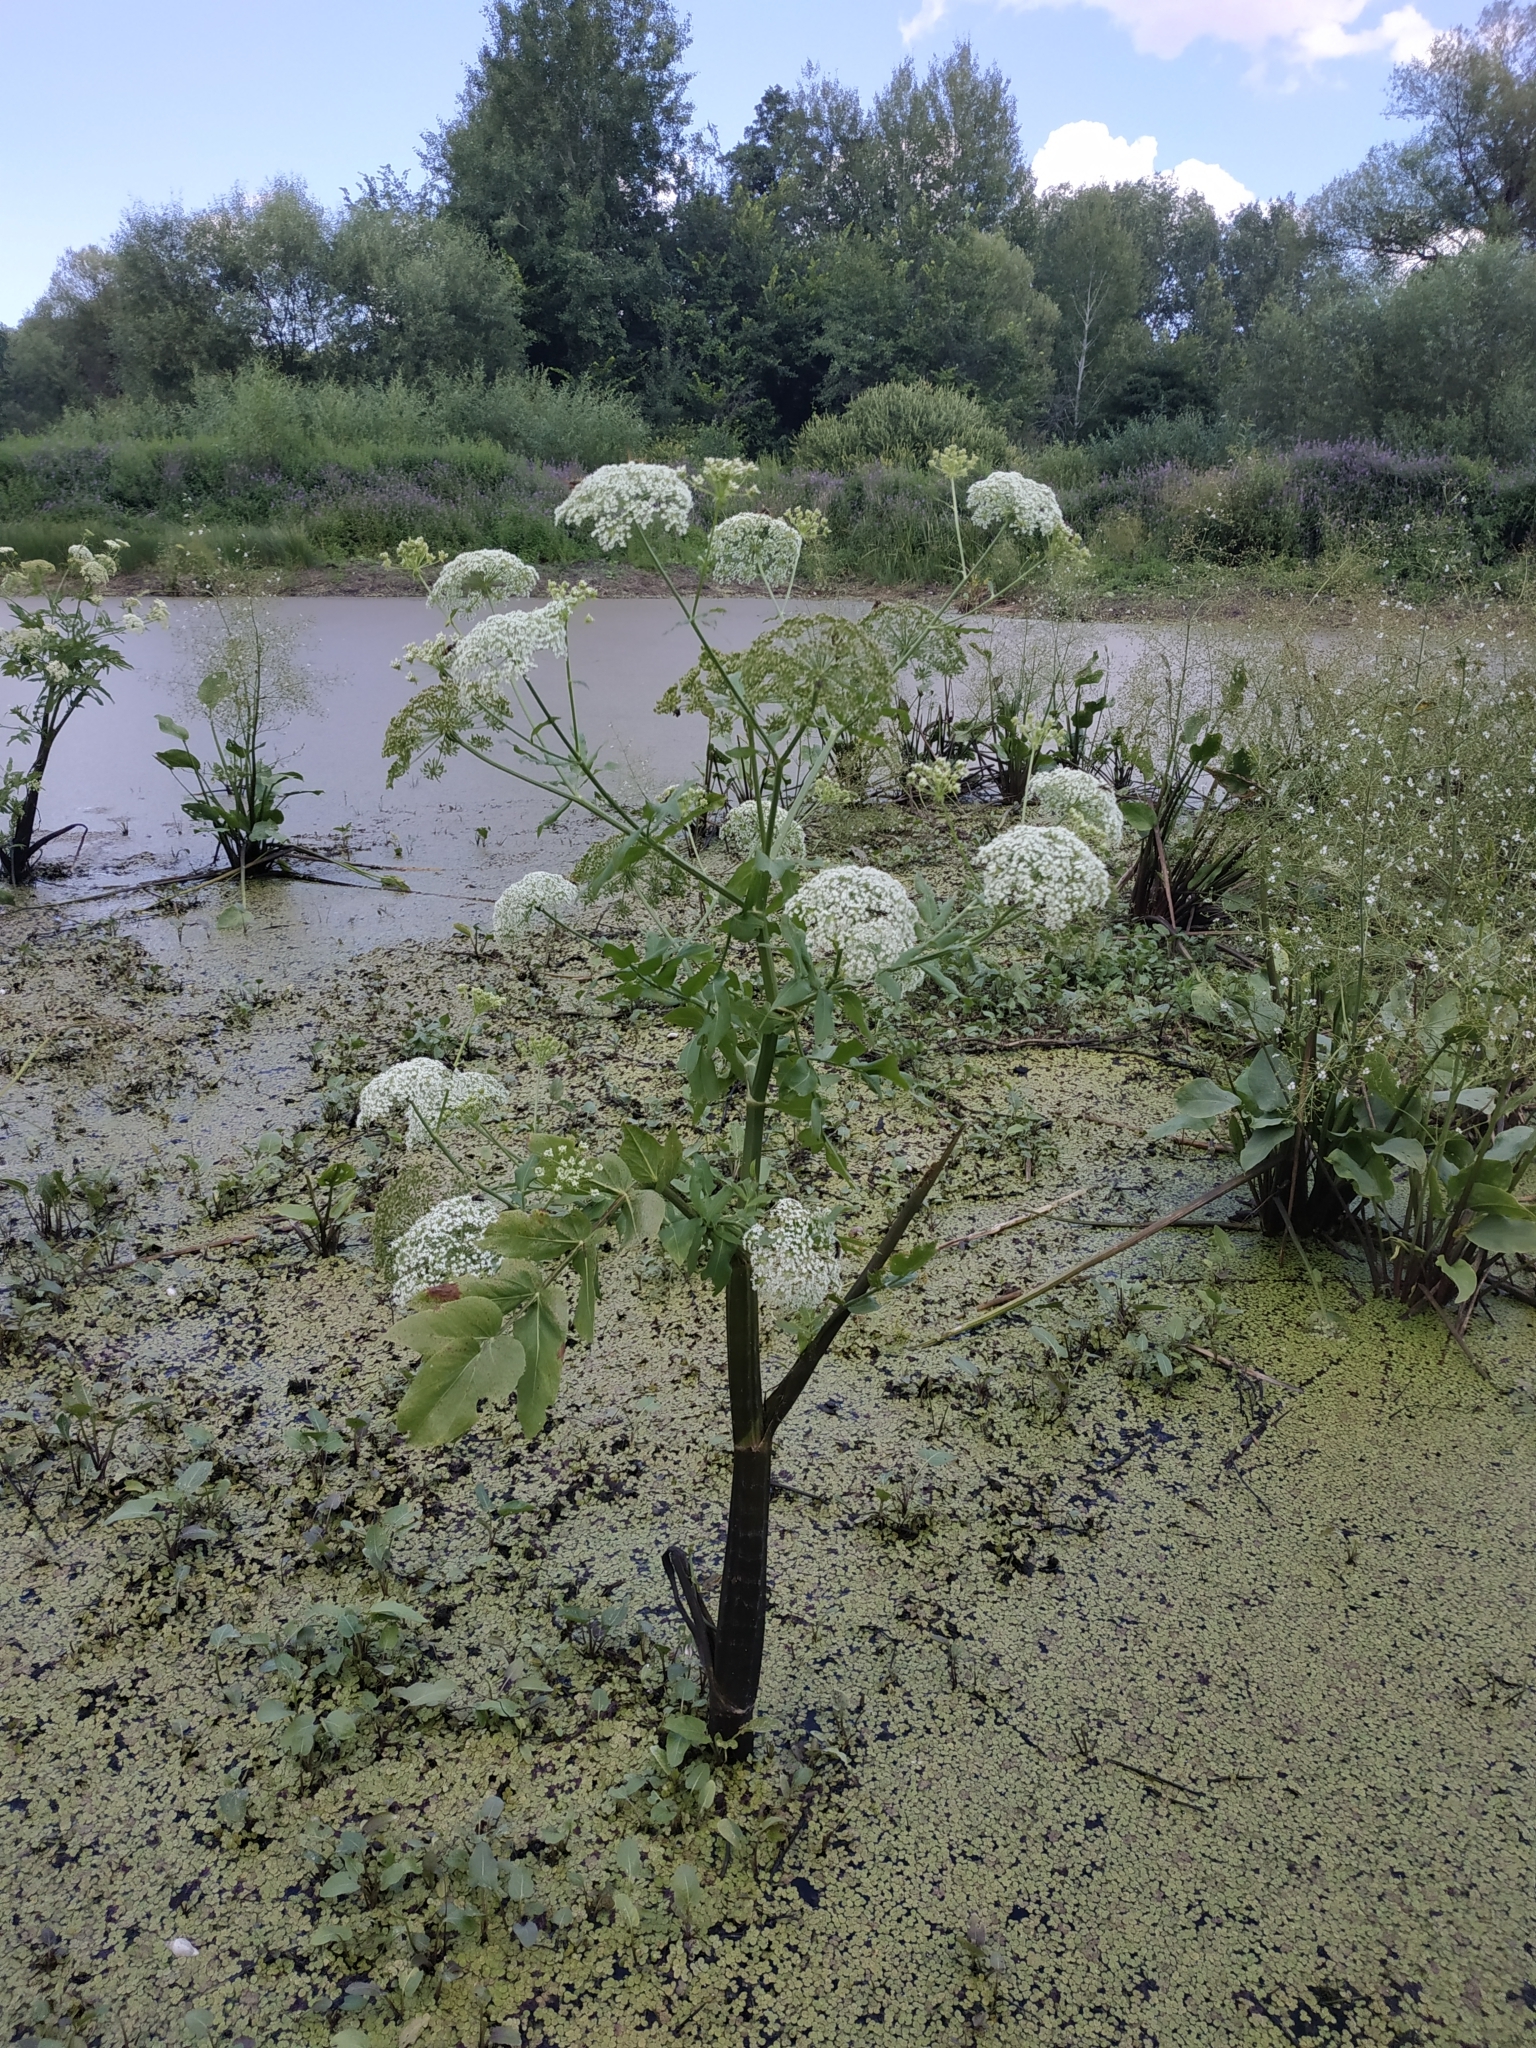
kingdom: Plantae
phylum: Tracheophyta
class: Magnoliopsida
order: Apiales
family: Apiaceae
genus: Sium
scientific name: Sium latifolium
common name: Greater water-parsnip
